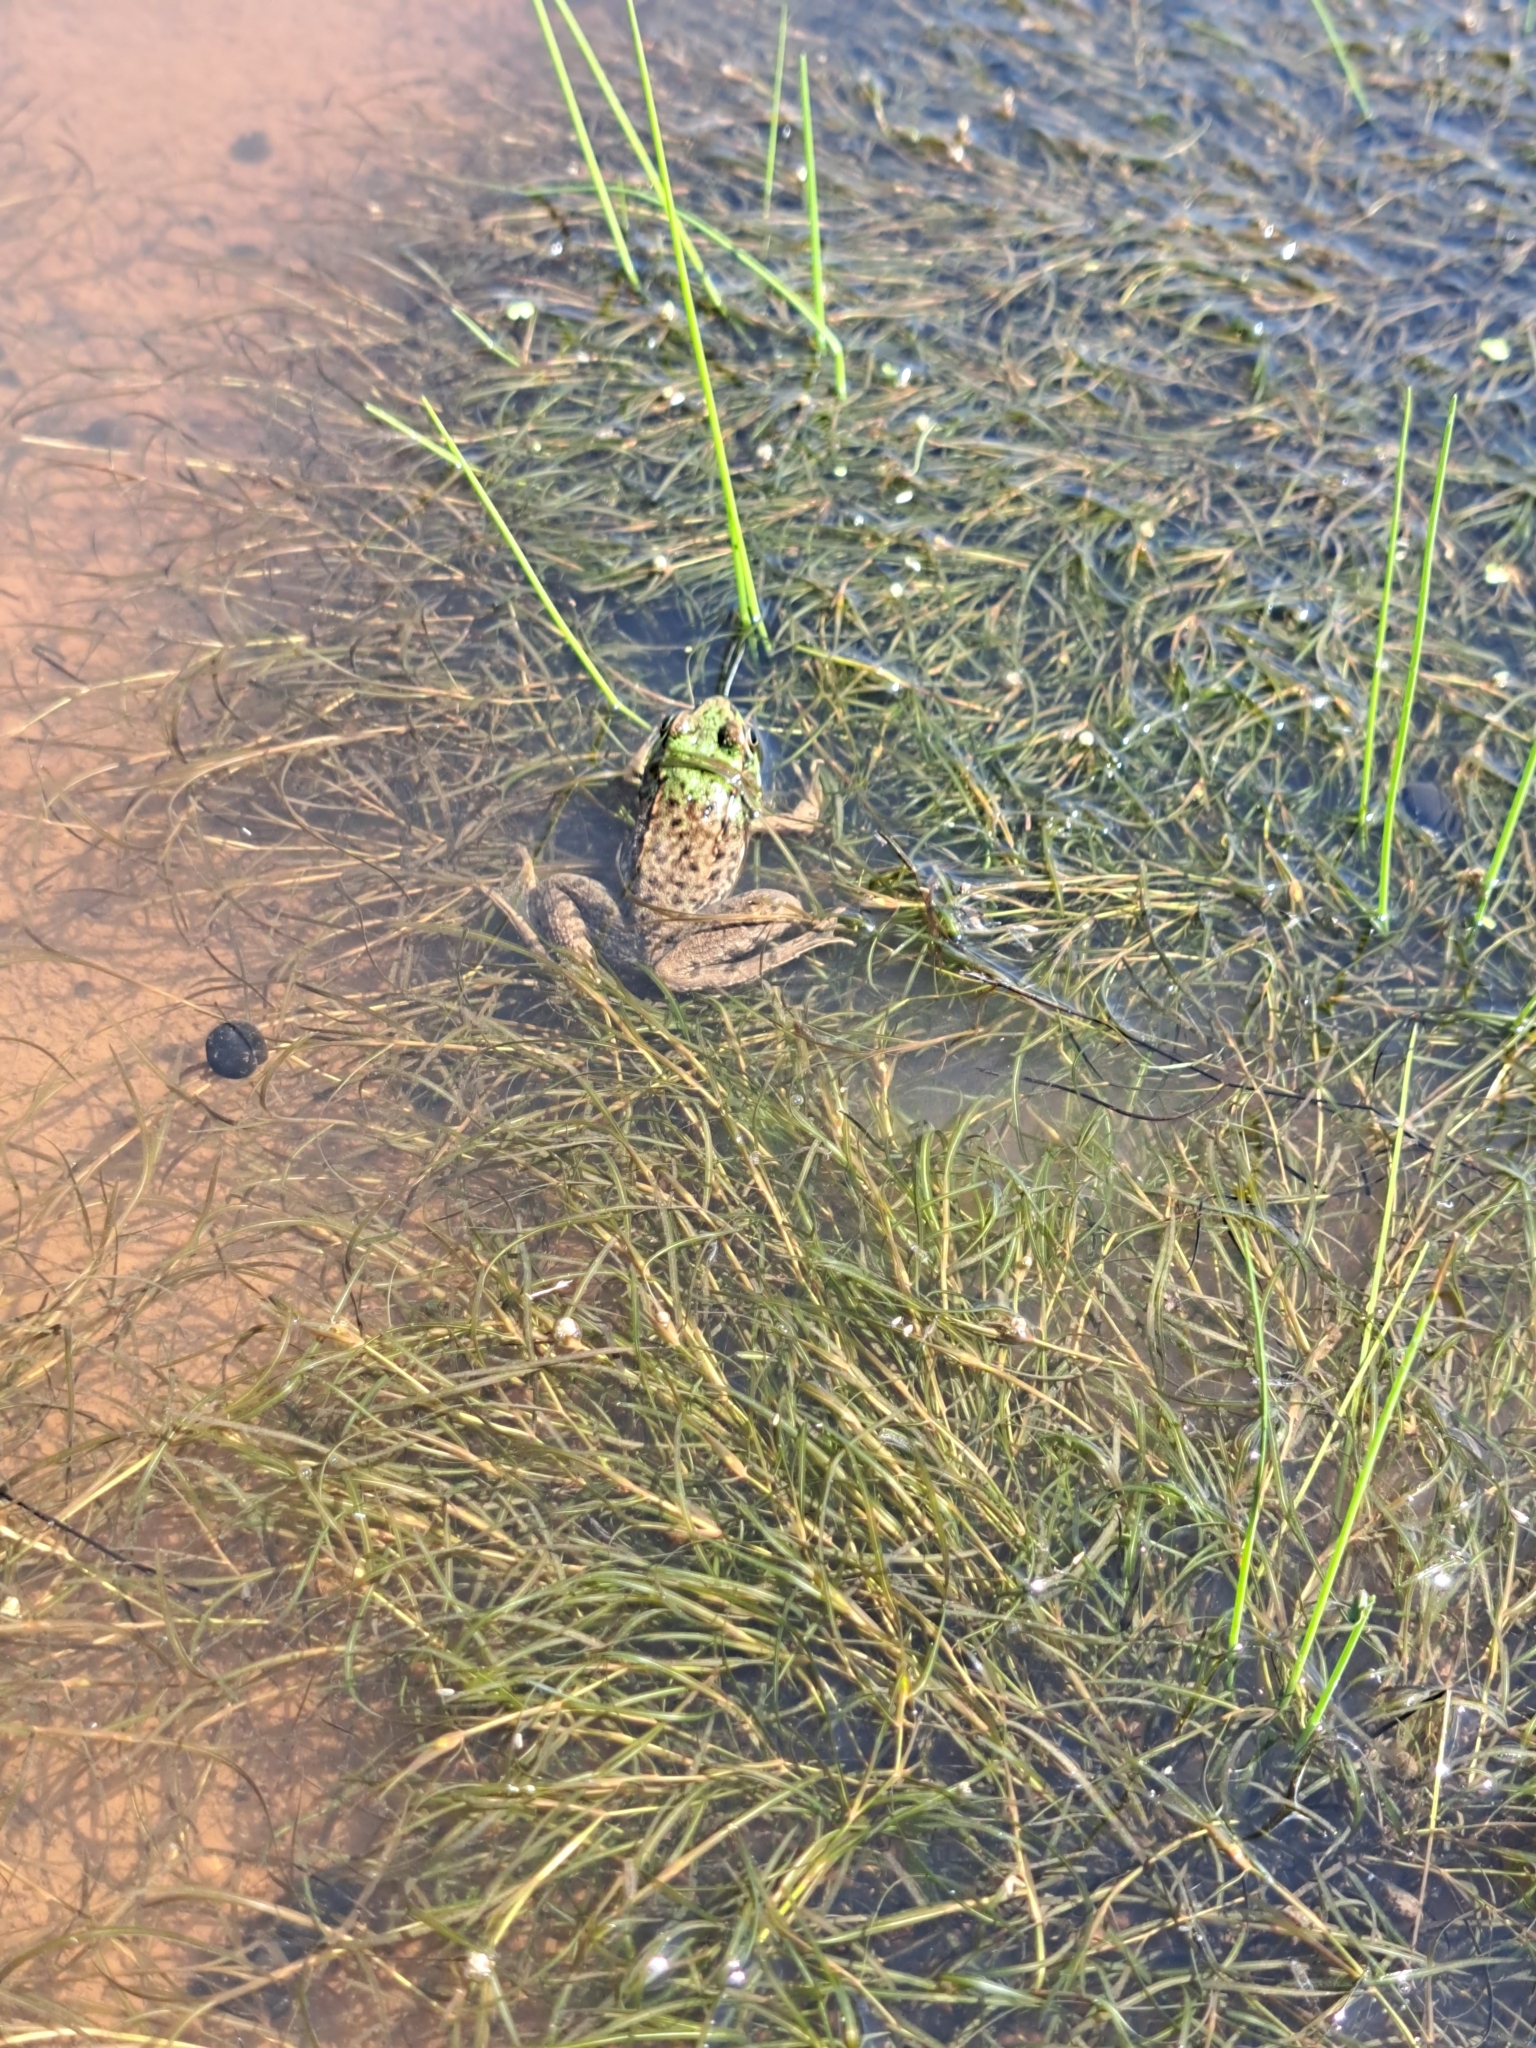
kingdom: Animalia
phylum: Chordata
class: Amphibia
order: Anura
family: Ranidae
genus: Lithobates
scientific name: Lithobates clamitans
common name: Green frog
